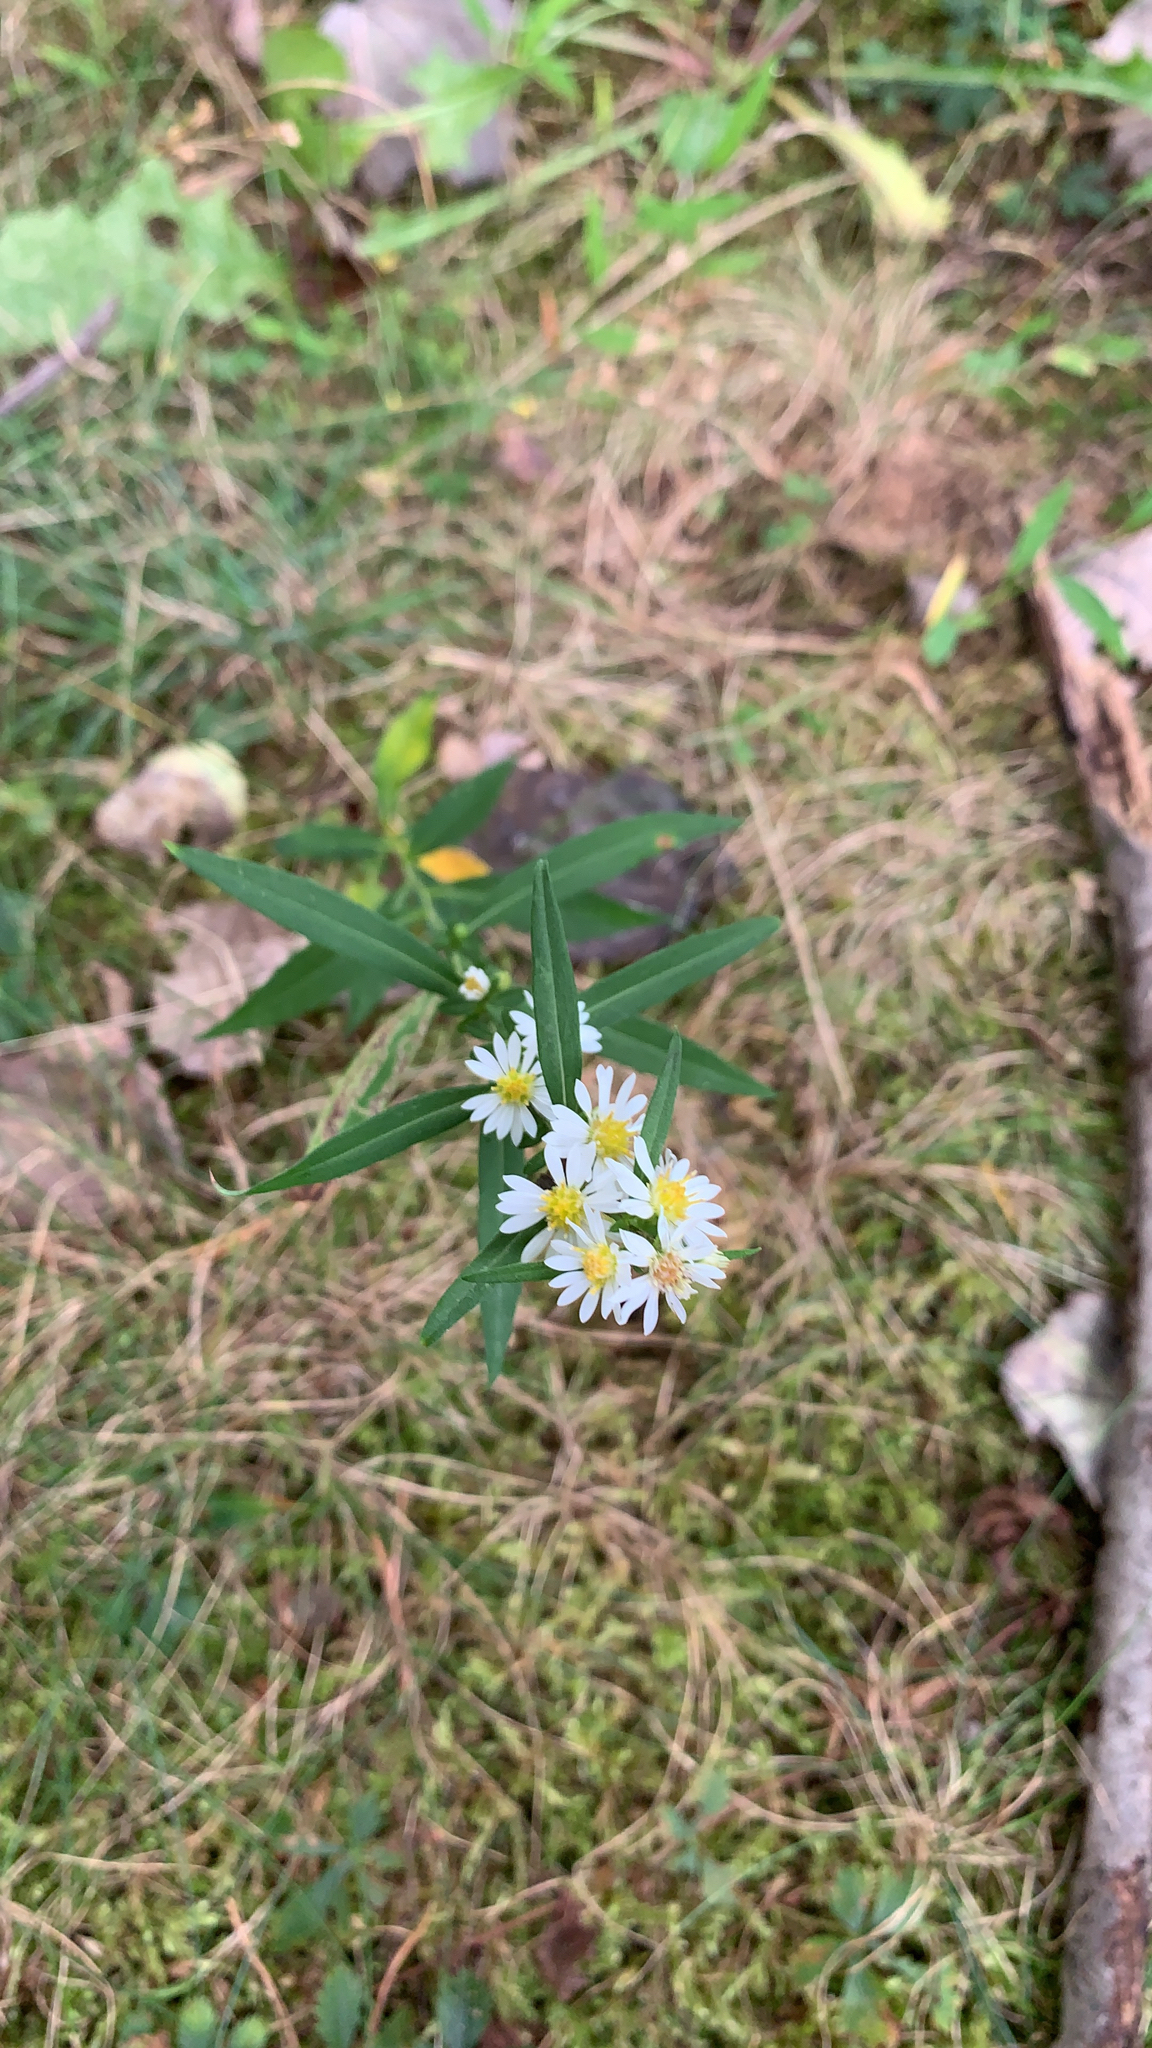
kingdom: Plantae
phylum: Tracheophyta
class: Magnoliopsida
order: Asterales
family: Asteraceae
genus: Symphyotrichum
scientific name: Symphyotrichum lanceolatum
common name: Panicled aster
